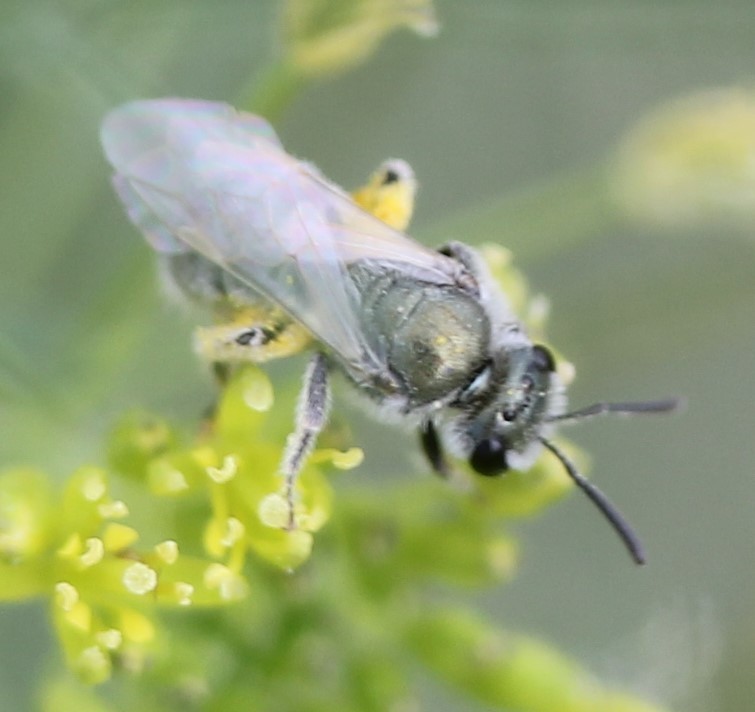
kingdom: Animalia
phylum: Arthropoda
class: Insecta
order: Hymenoptera
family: Halictidae
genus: Dialictus
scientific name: Dialictus
